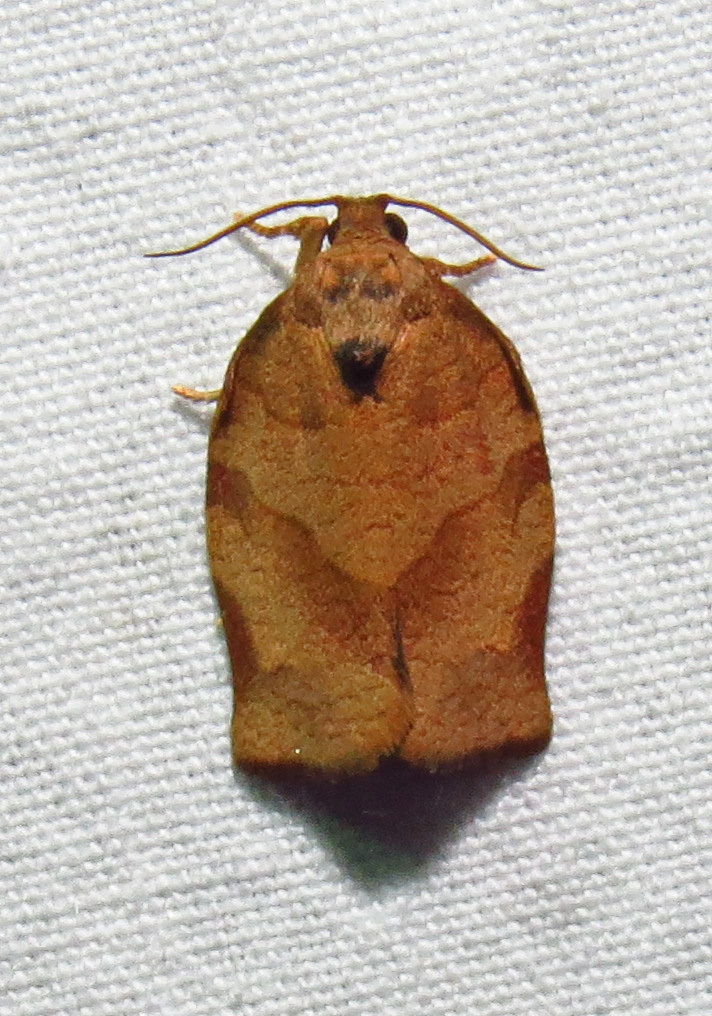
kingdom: Animalia
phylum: Arthropoda
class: Insecta
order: Lepidoptera
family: Tortricidae
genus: Choristoneura
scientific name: Choristoneura rosaceana
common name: Oblique-banded leafroller moth
